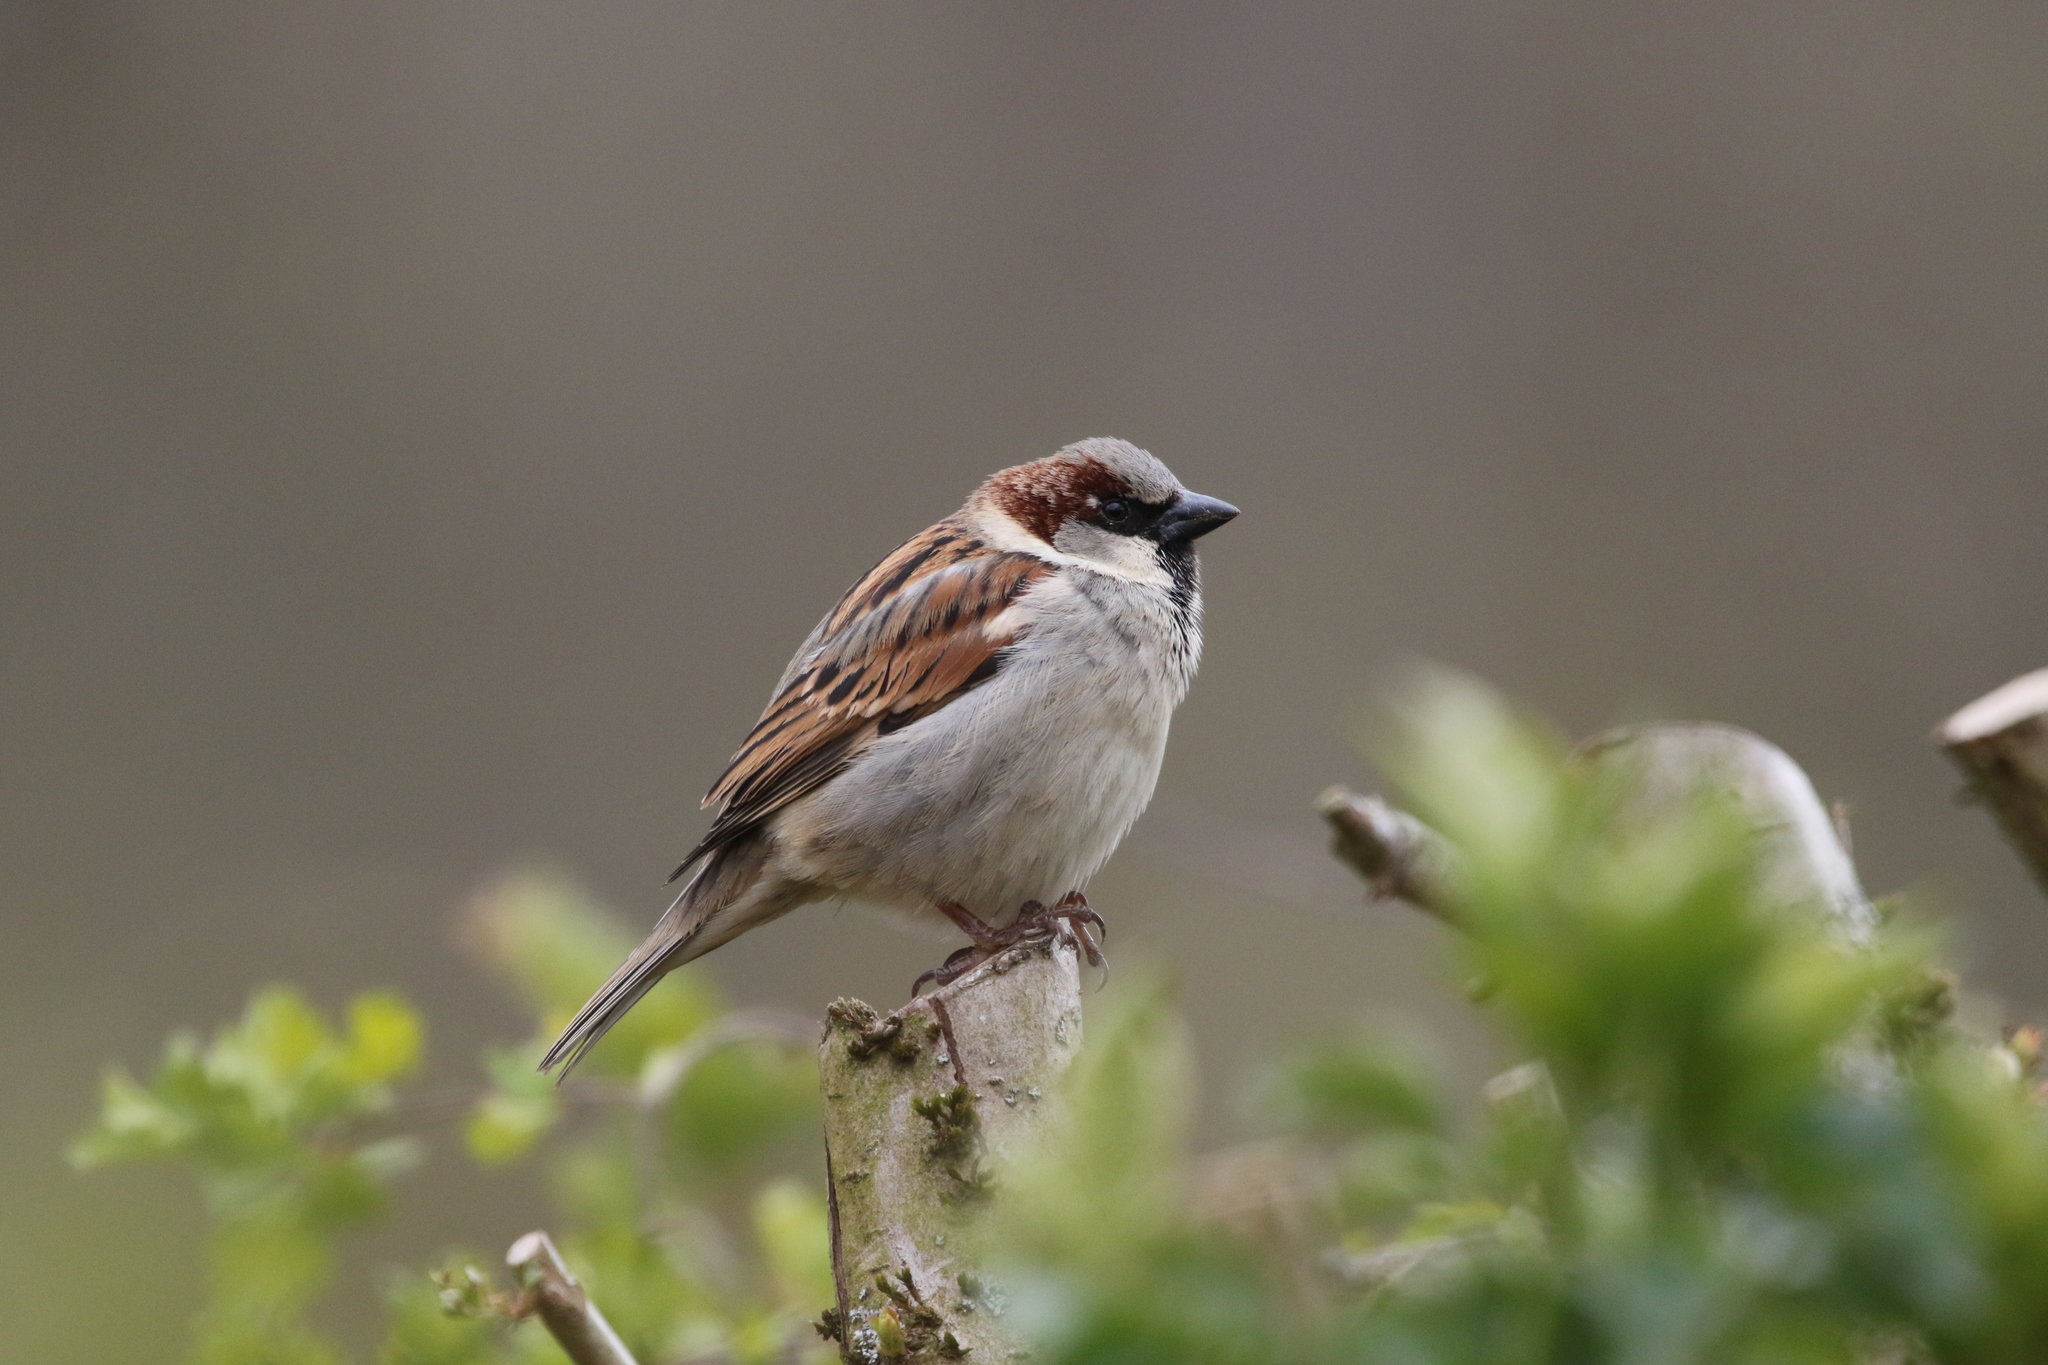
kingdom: Animalia
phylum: Chordata
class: Aves
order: Passeriformes
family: Passeridae
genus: Passer
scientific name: Passer domesticus
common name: House sparrow
